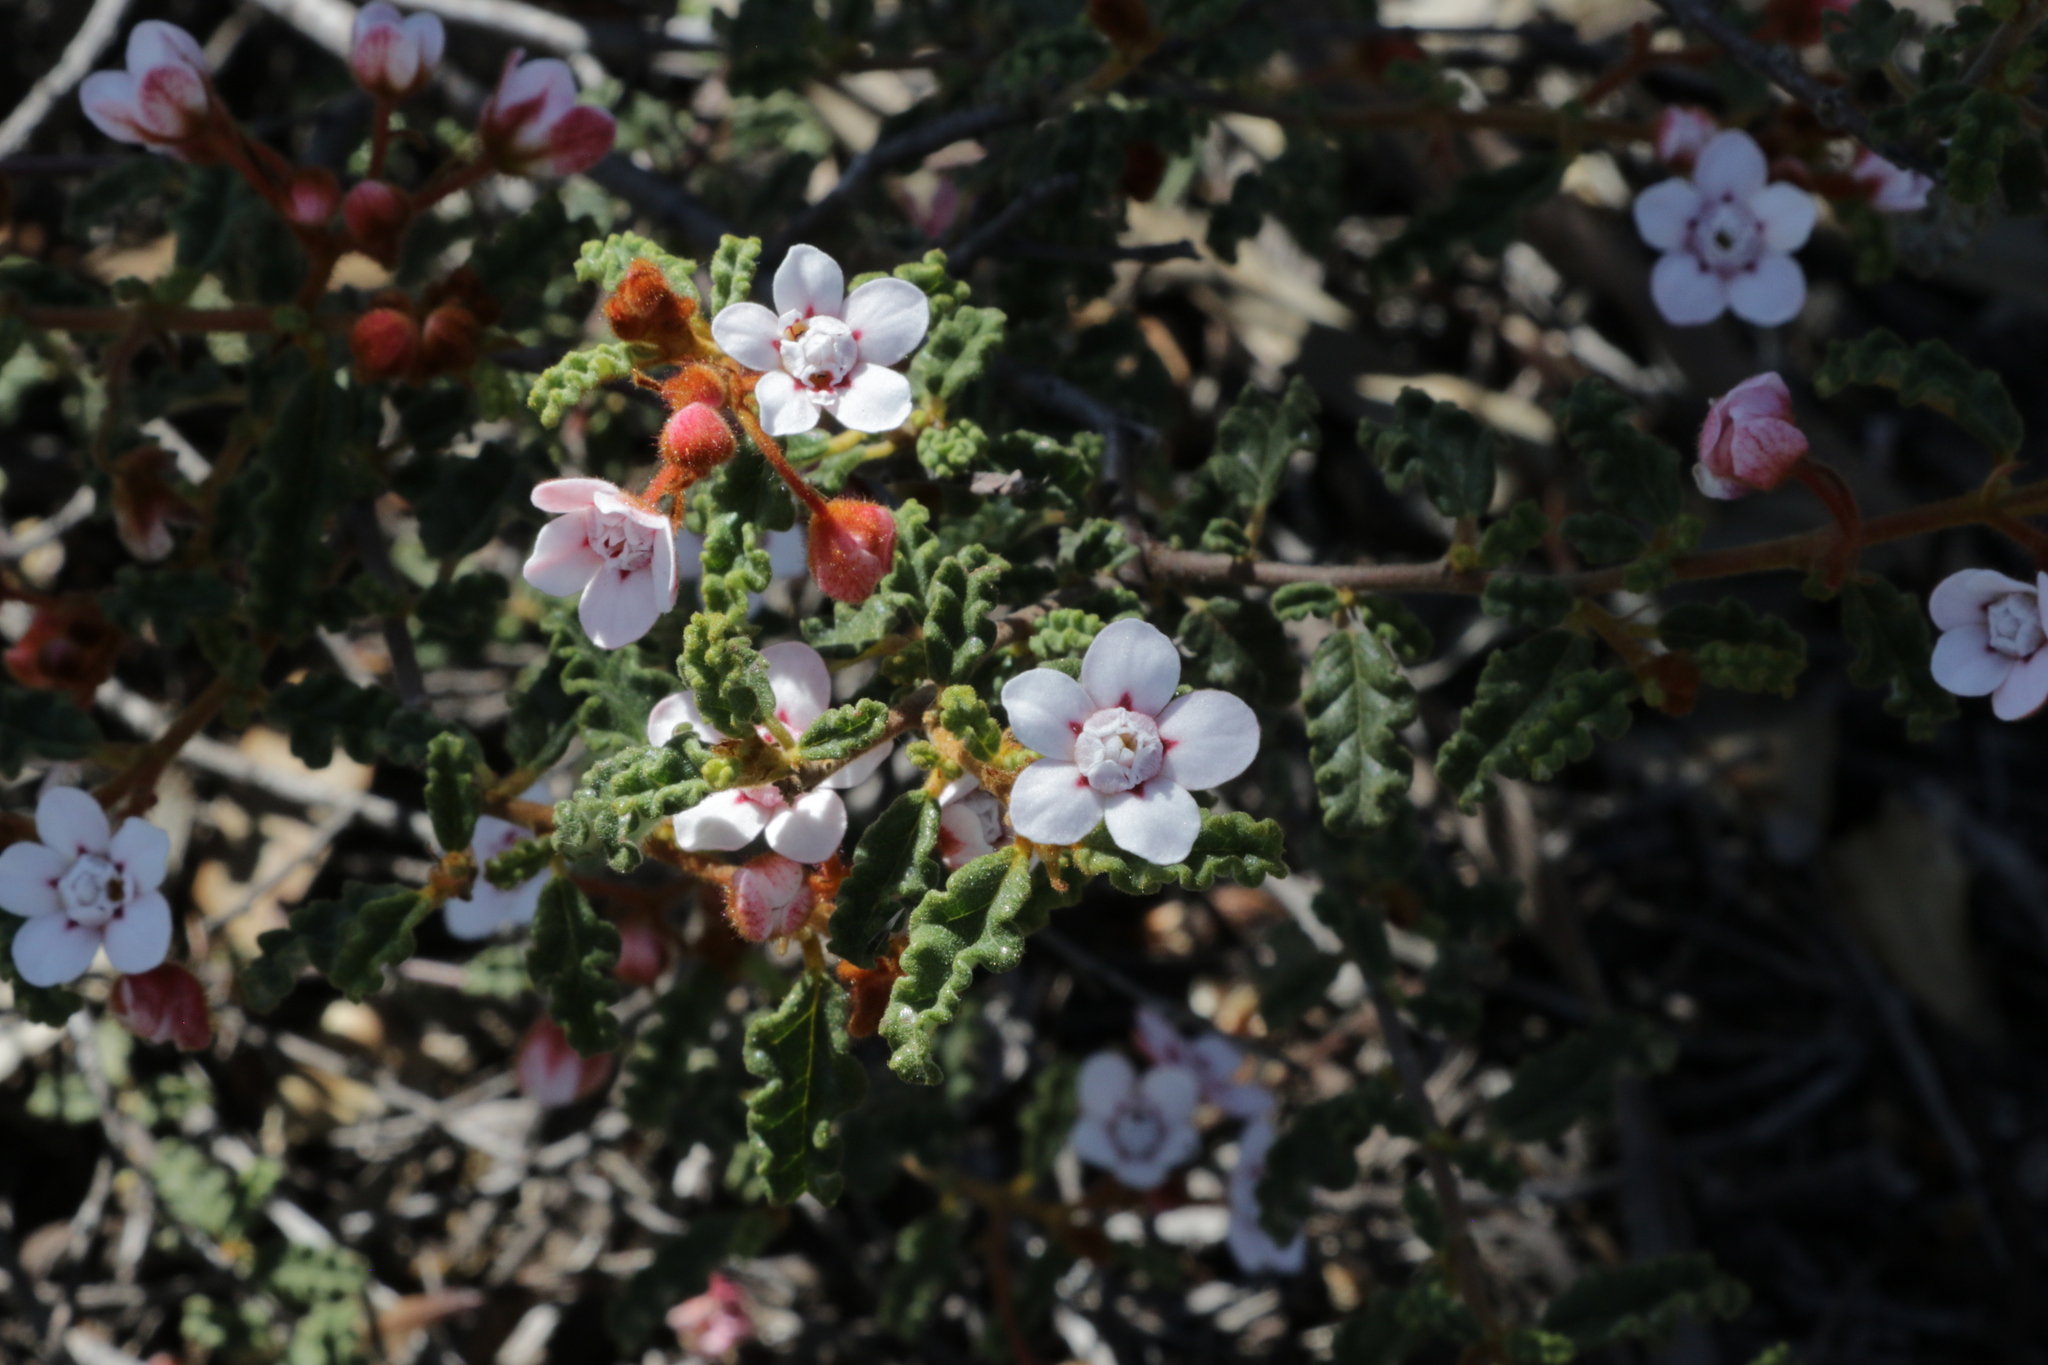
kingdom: Plantae
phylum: Tracheophyta
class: Magnoliopsida
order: Malvales
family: Malvaceae
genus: Androcalva
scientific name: Androcalva pulchella
